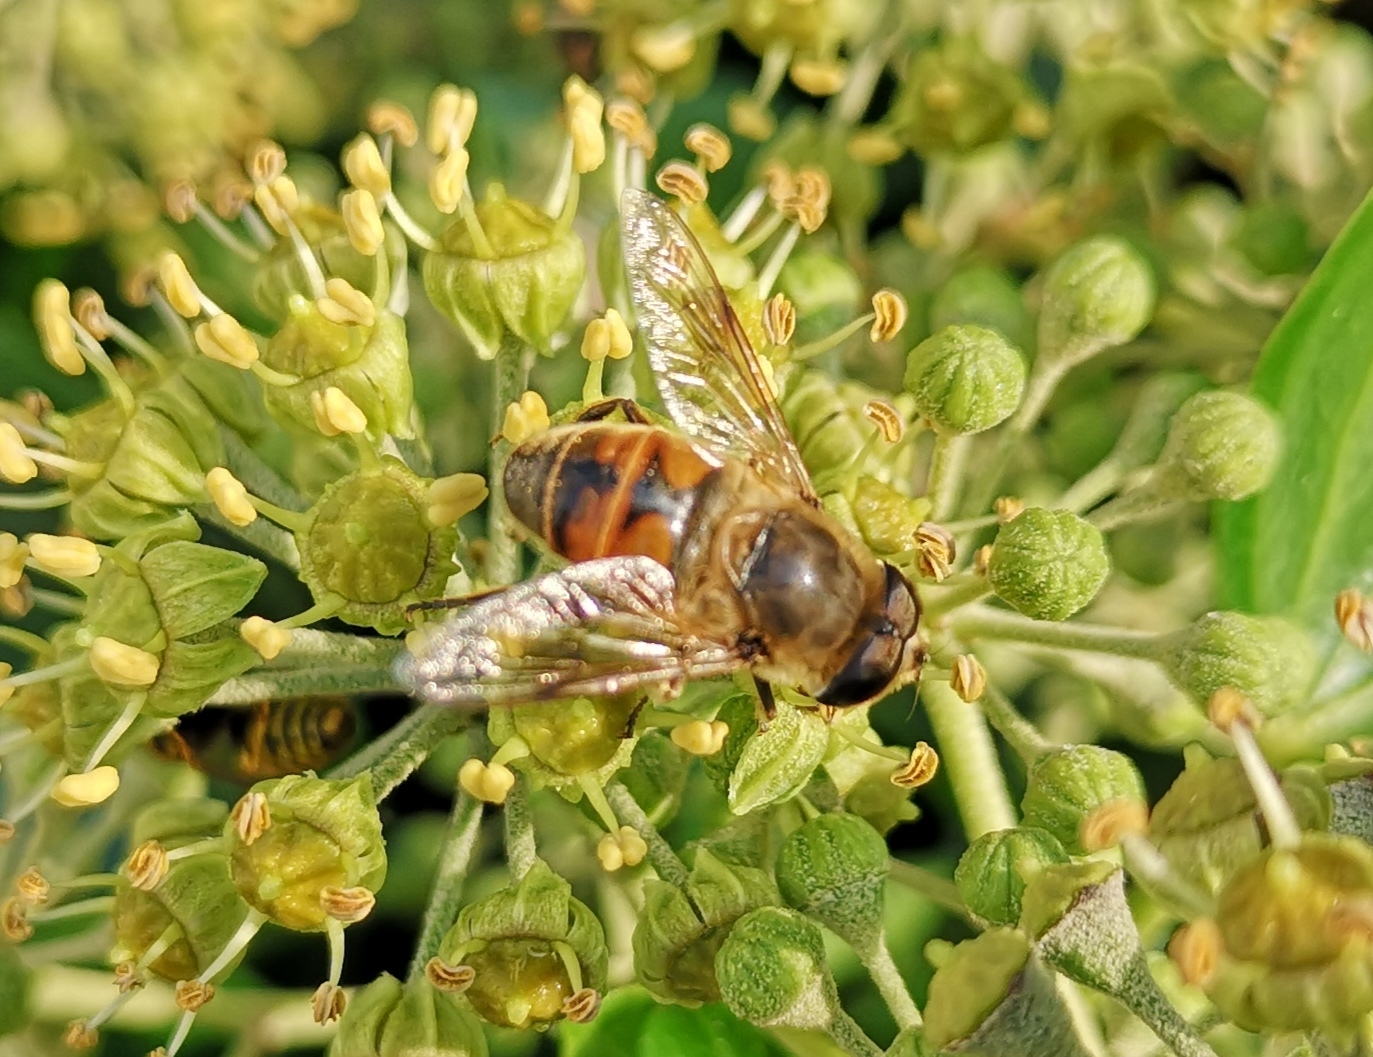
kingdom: Animalia
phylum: Arthropoda
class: Insecta
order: Diptera
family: Syrphidae
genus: Eristalis
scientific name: Eristalis tenax
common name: Drone fly
